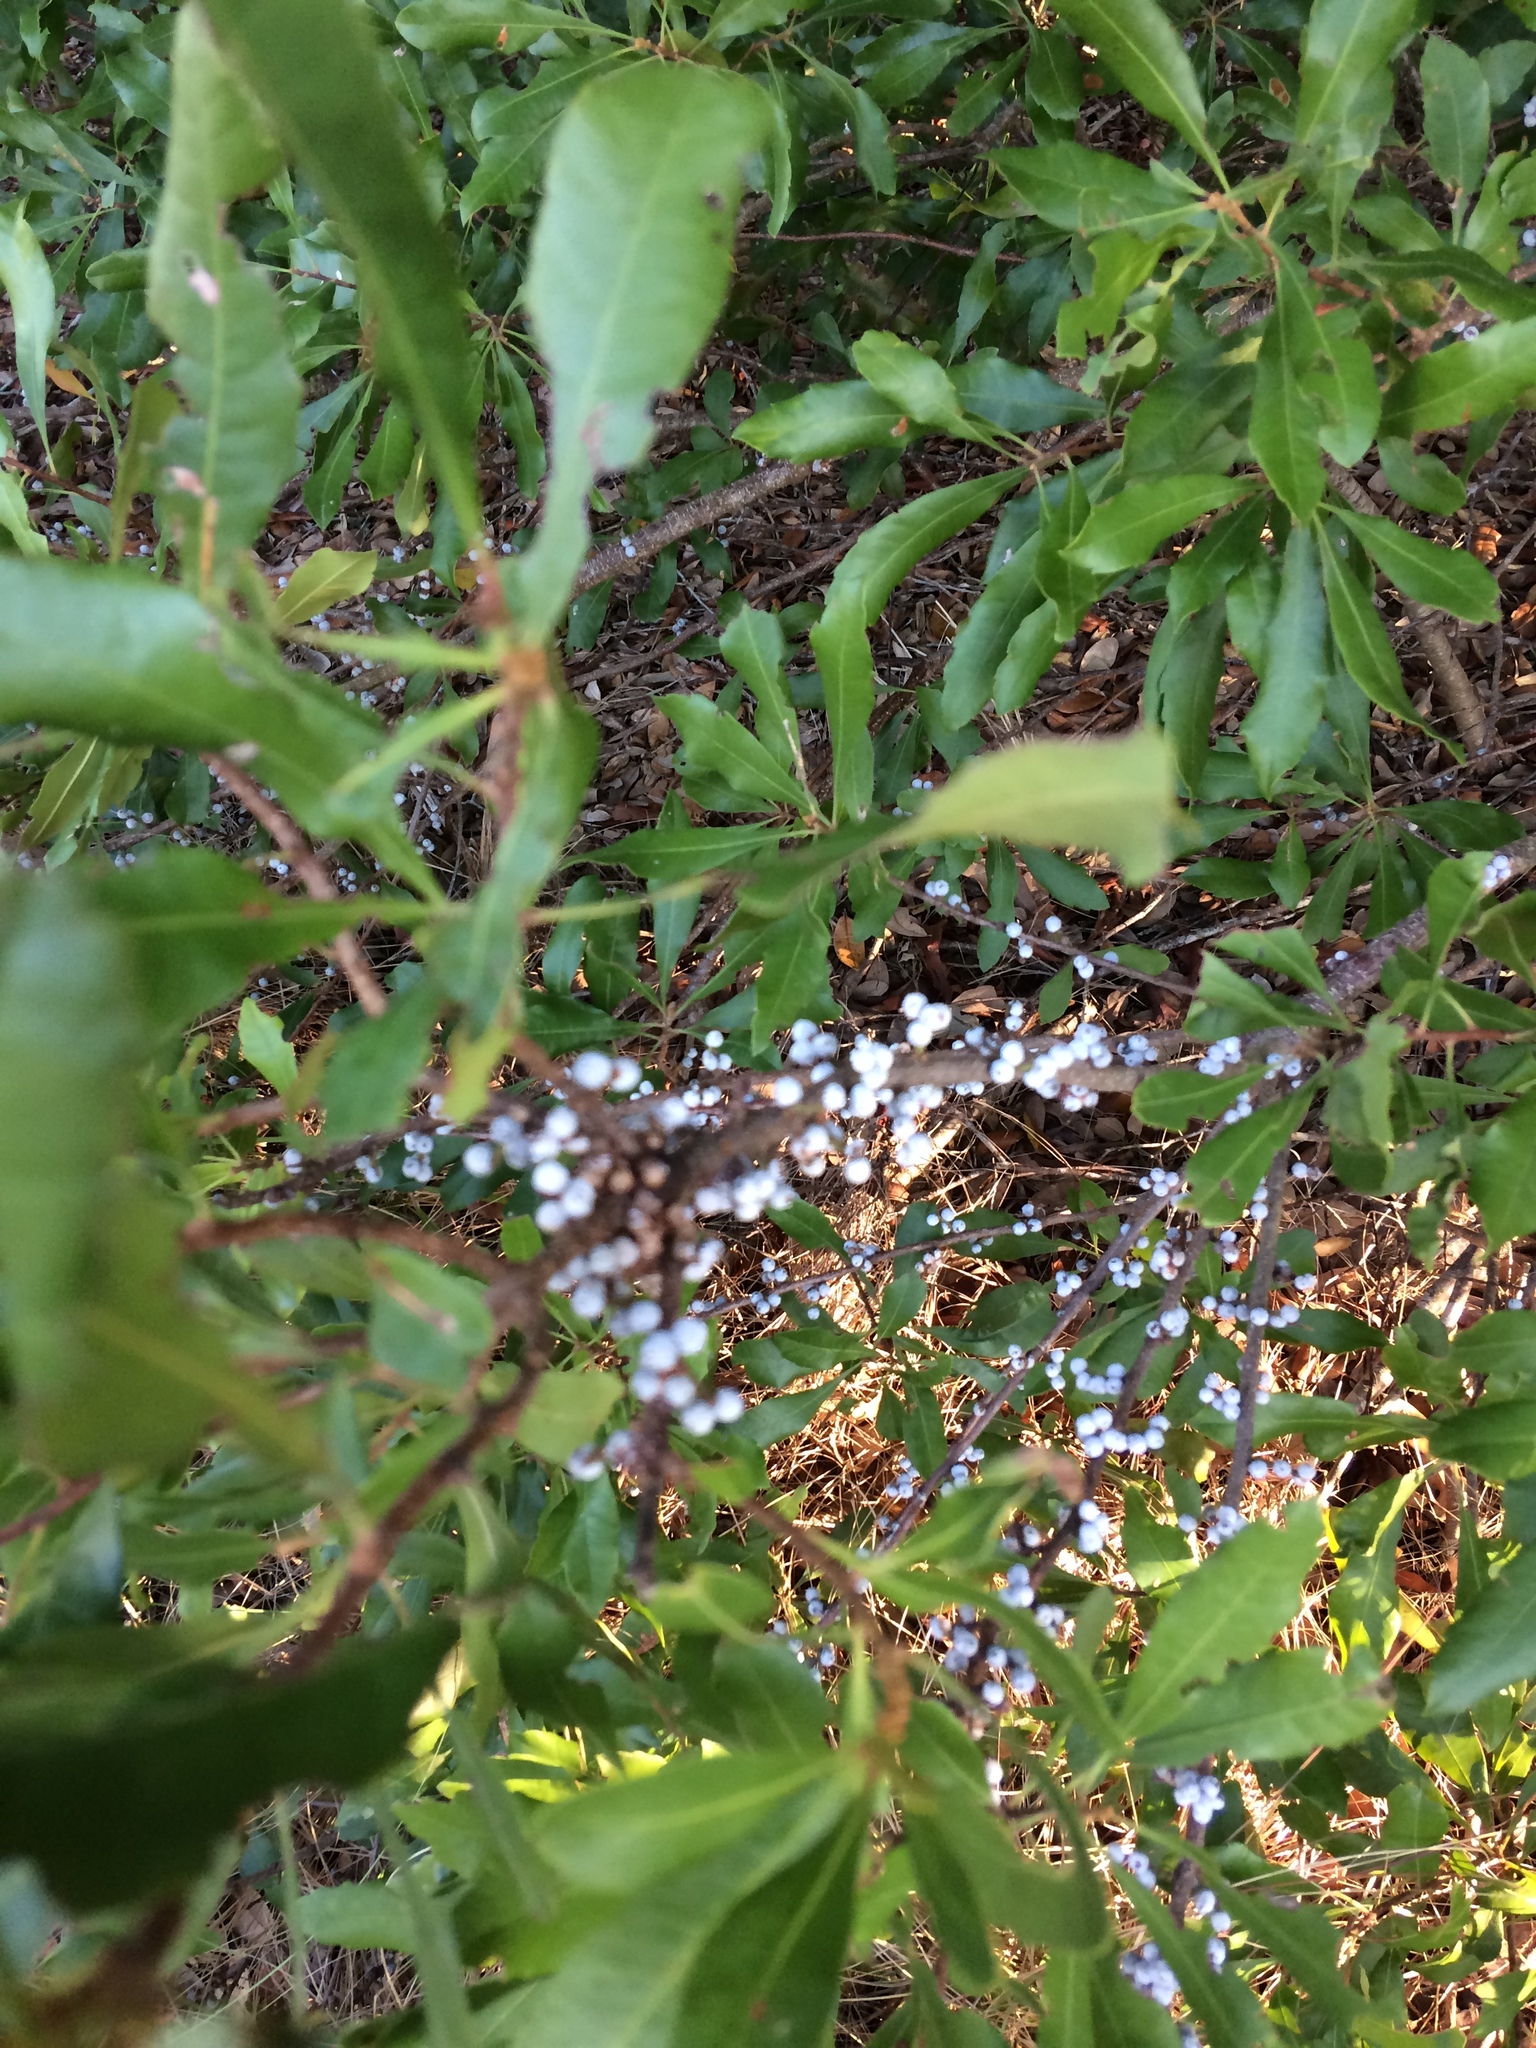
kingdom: Plantae
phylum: Tracheophyta
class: Magnoliopsida
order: Fagales
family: Myricaceae
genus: Morella
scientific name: Morella cerifera
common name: Wax myrtle
